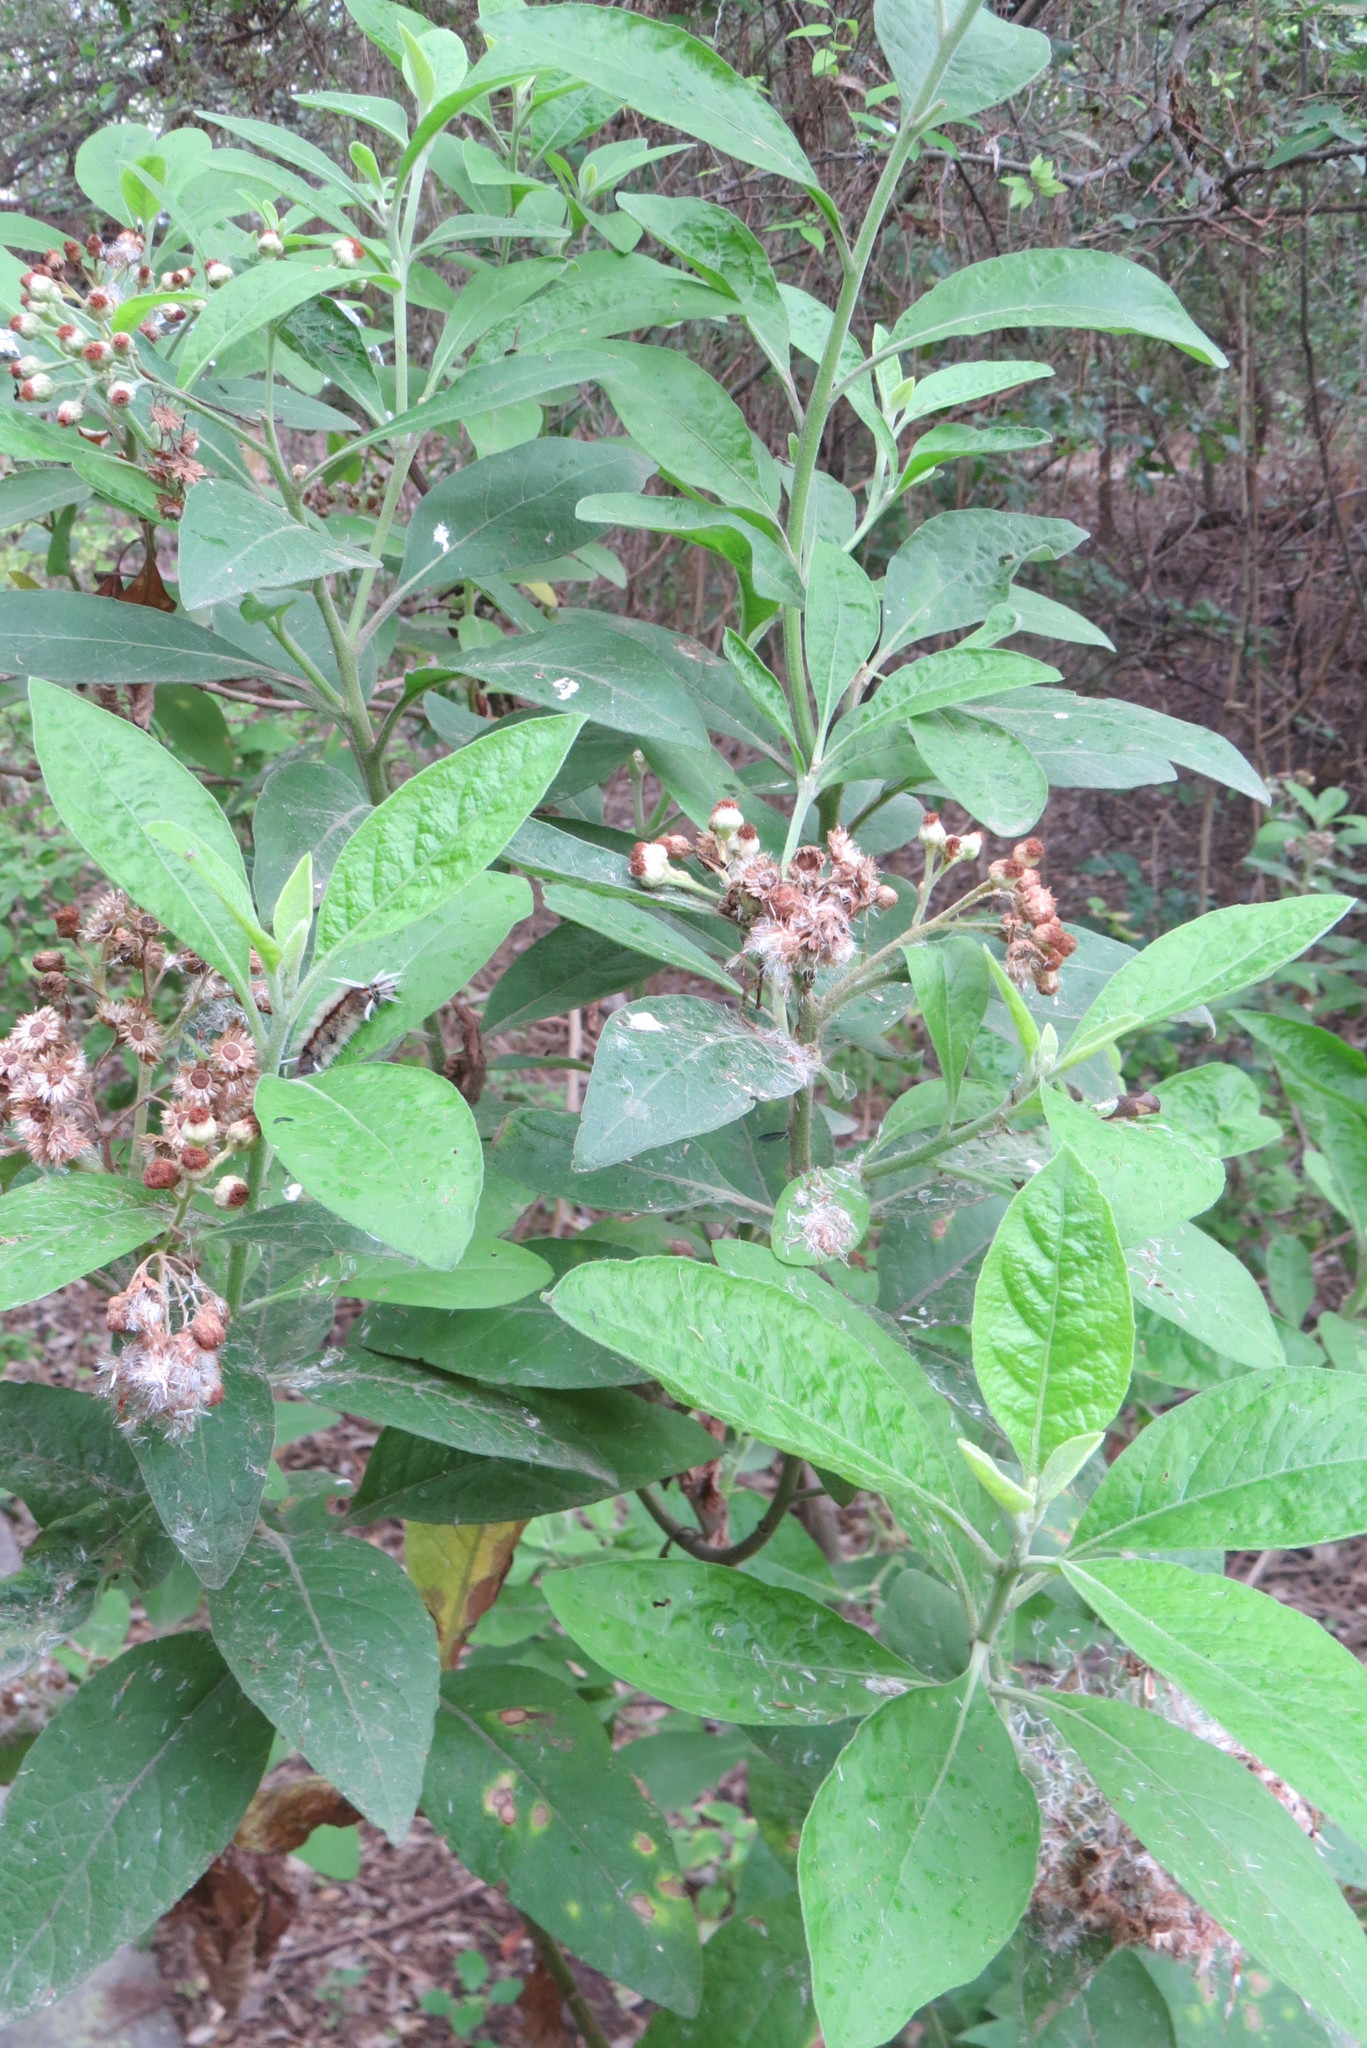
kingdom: Plantae
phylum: Tracheophyta
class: Magnoliopsida
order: Asterales
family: Asteraceae
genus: Pluchea
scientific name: Pluchea carolinensis
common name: Marsh fleabane
